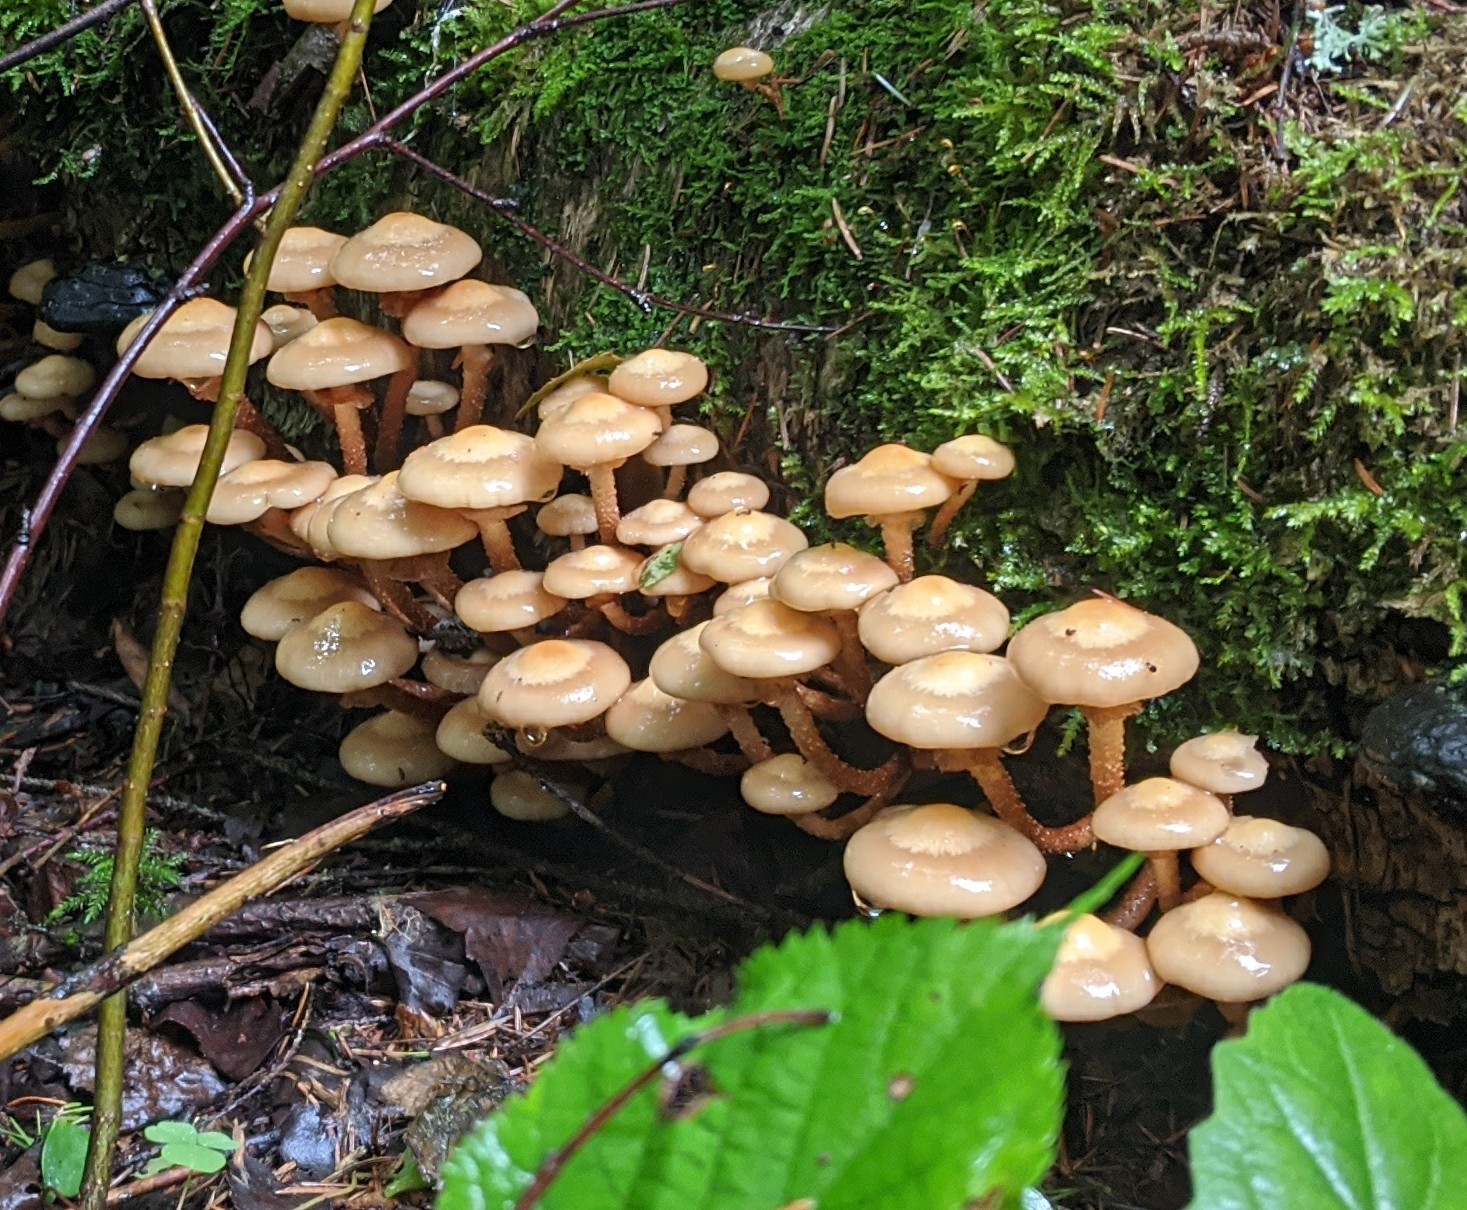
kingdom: Fungi
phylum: Basidiomycota
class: Agaricomycetes
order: Agaricales
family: Strophariaceae
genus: Kuehneromyces
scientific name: Kuehneromyces mutabilis
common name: Sheathed woodtuft
